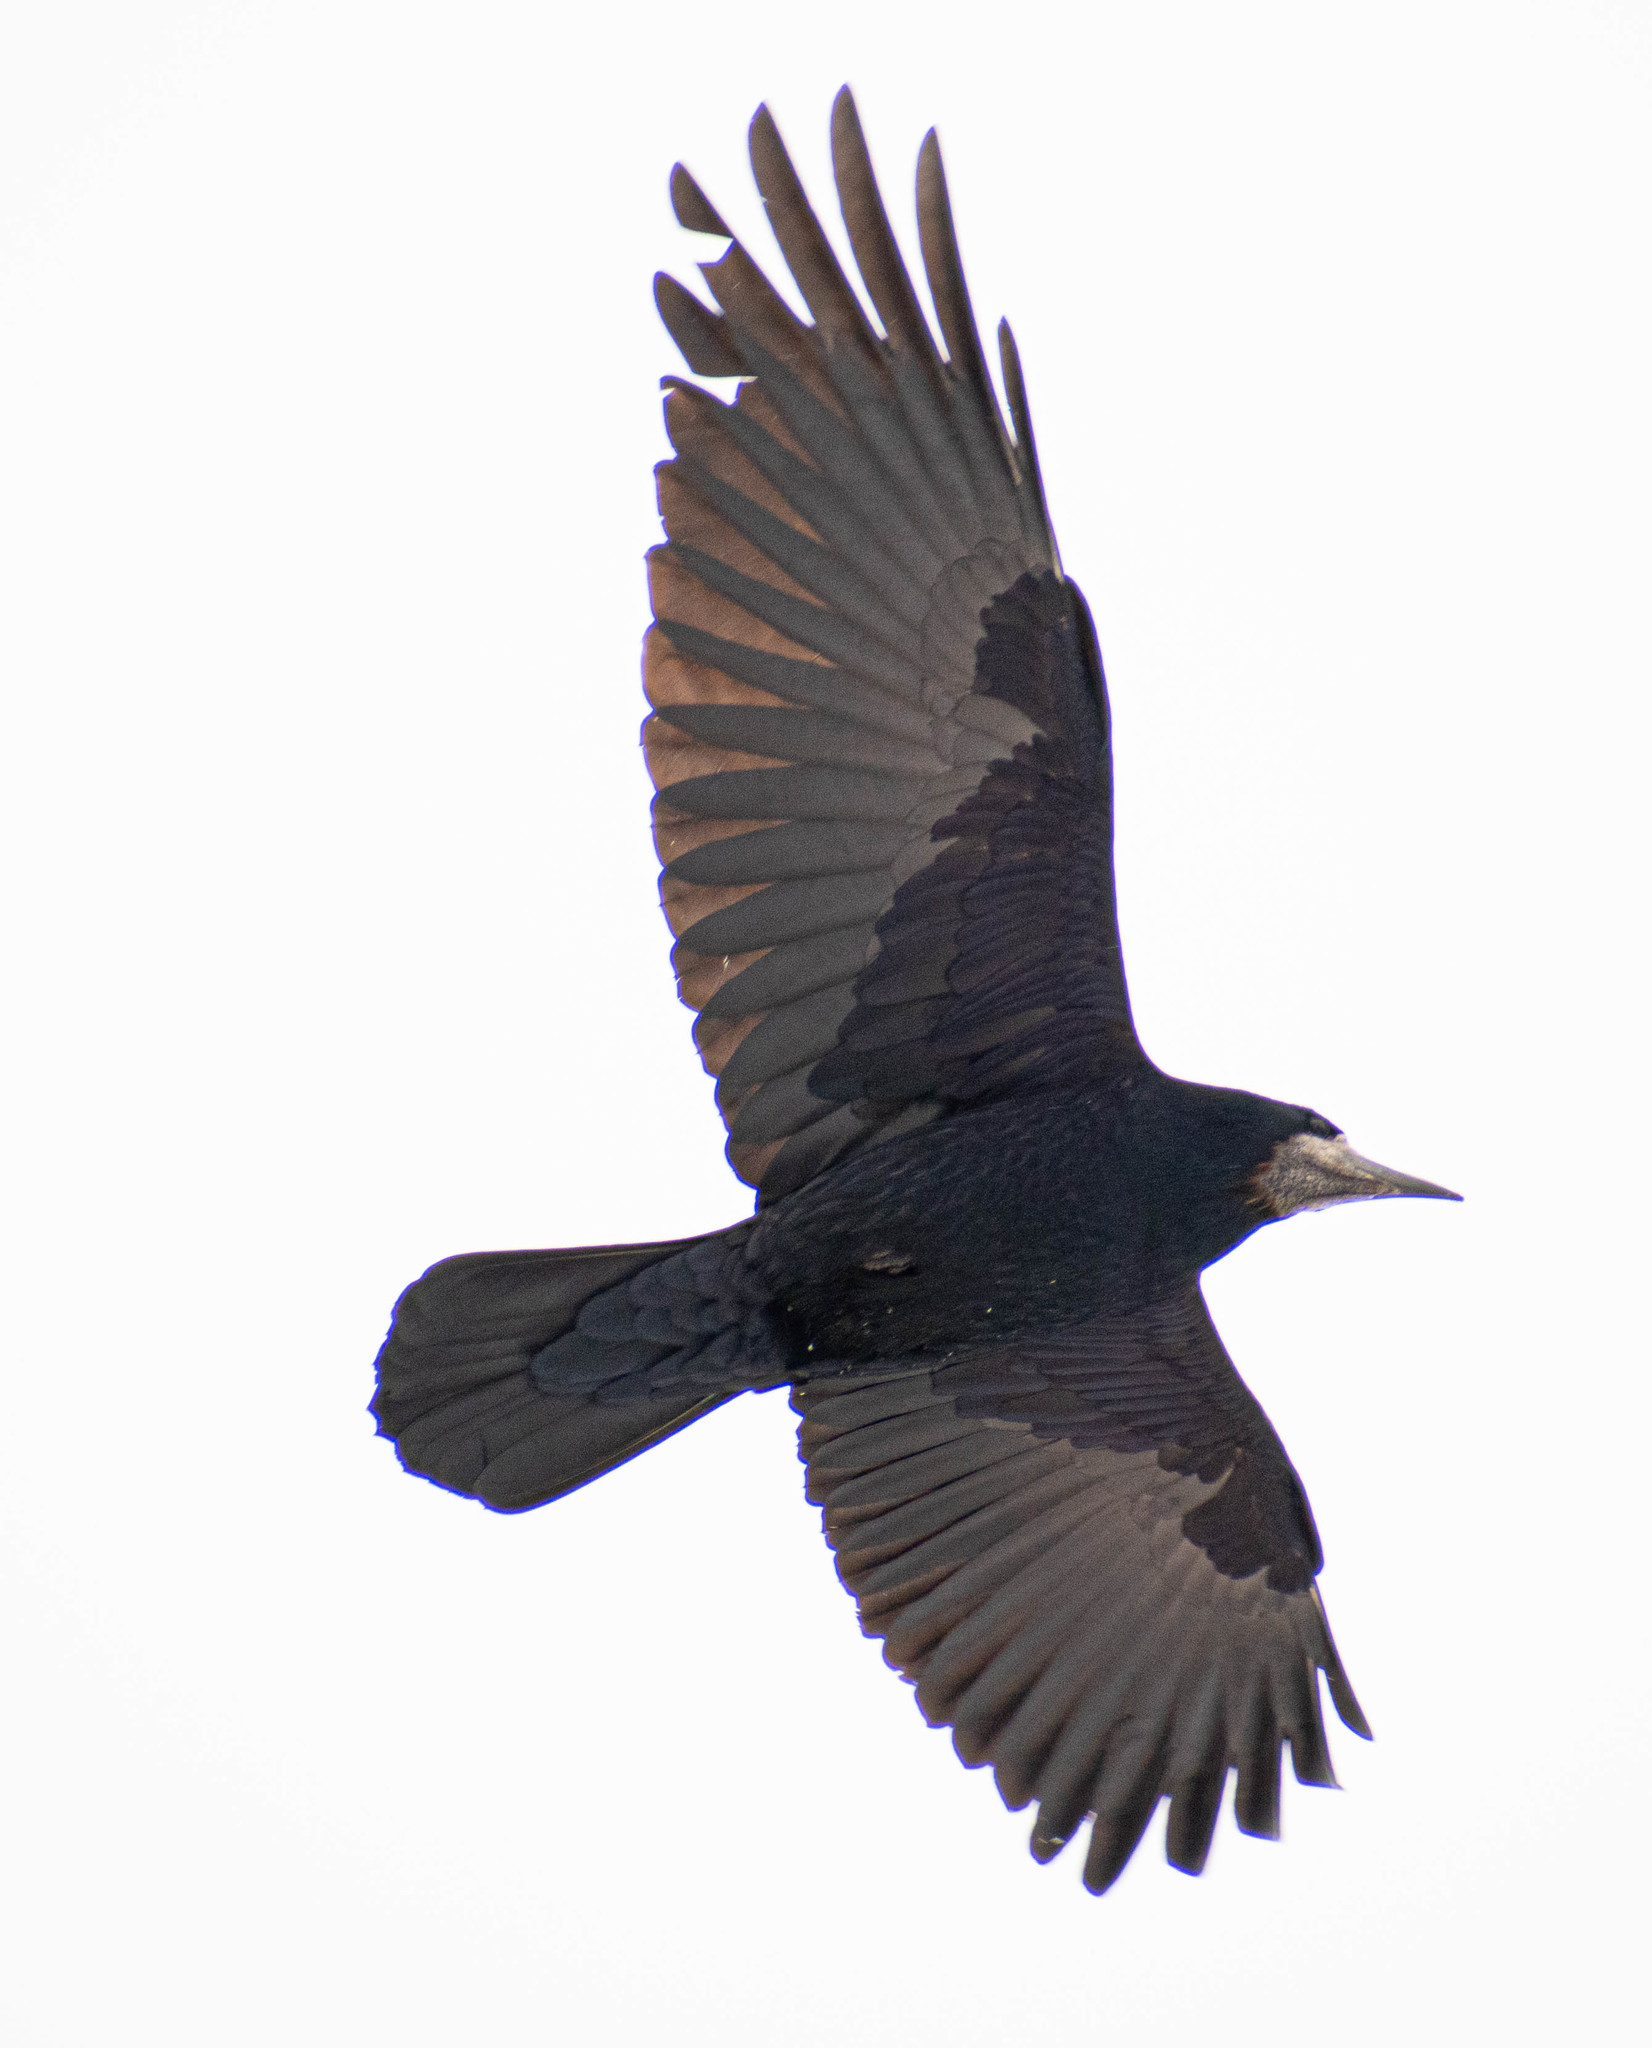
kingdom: Animalia
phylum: Chordata
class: Aves
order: Passeriformes
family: Corvidae
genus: Corvus
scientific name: Corvus frugilegus
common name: Rook
